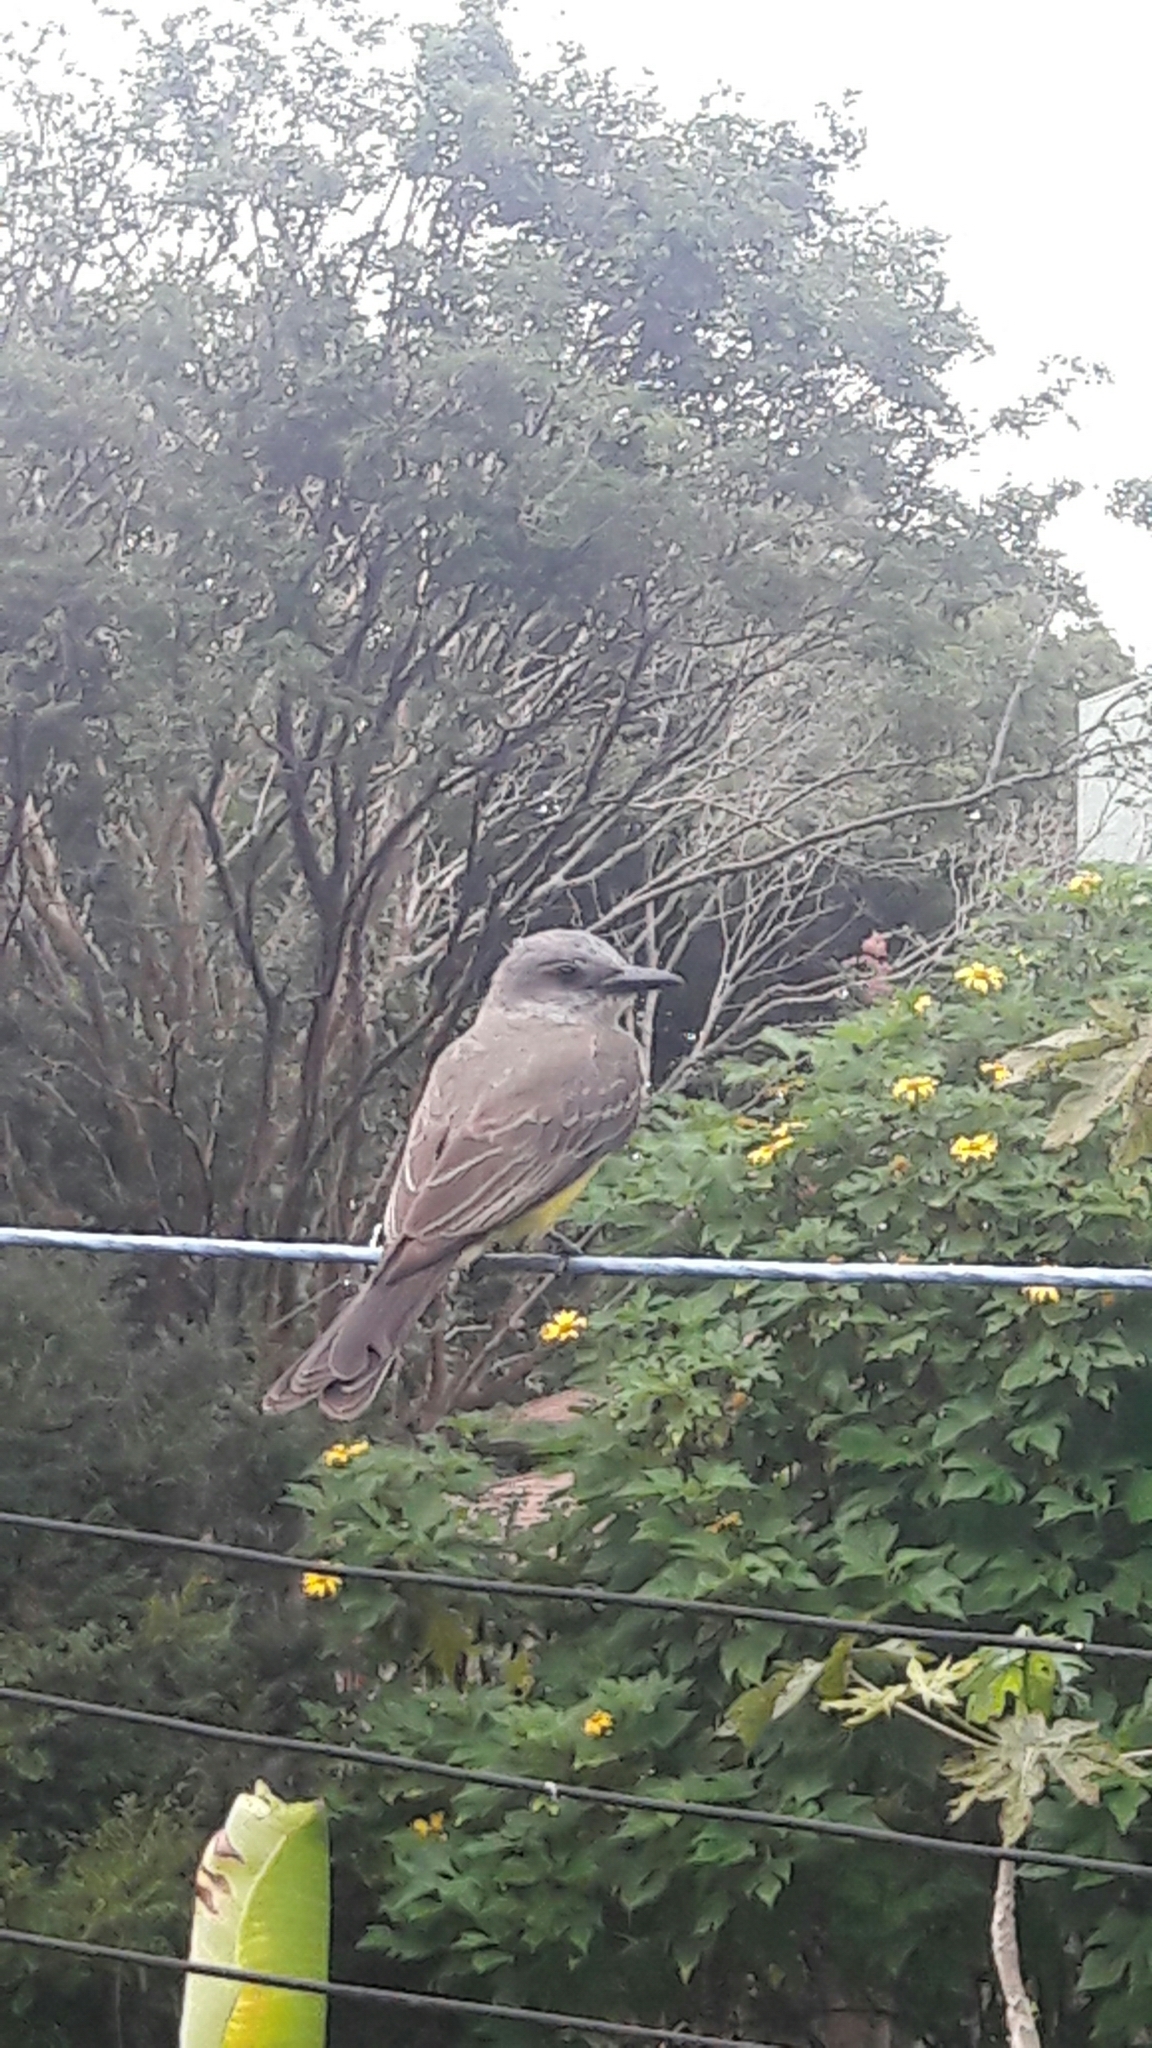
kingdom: Animalia
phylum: Chordata
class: Aves
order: Passeriformes
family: Tyrannidae
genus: Tyrannus
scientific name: Tyrannus melancholicus
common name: Tropical kingbird
